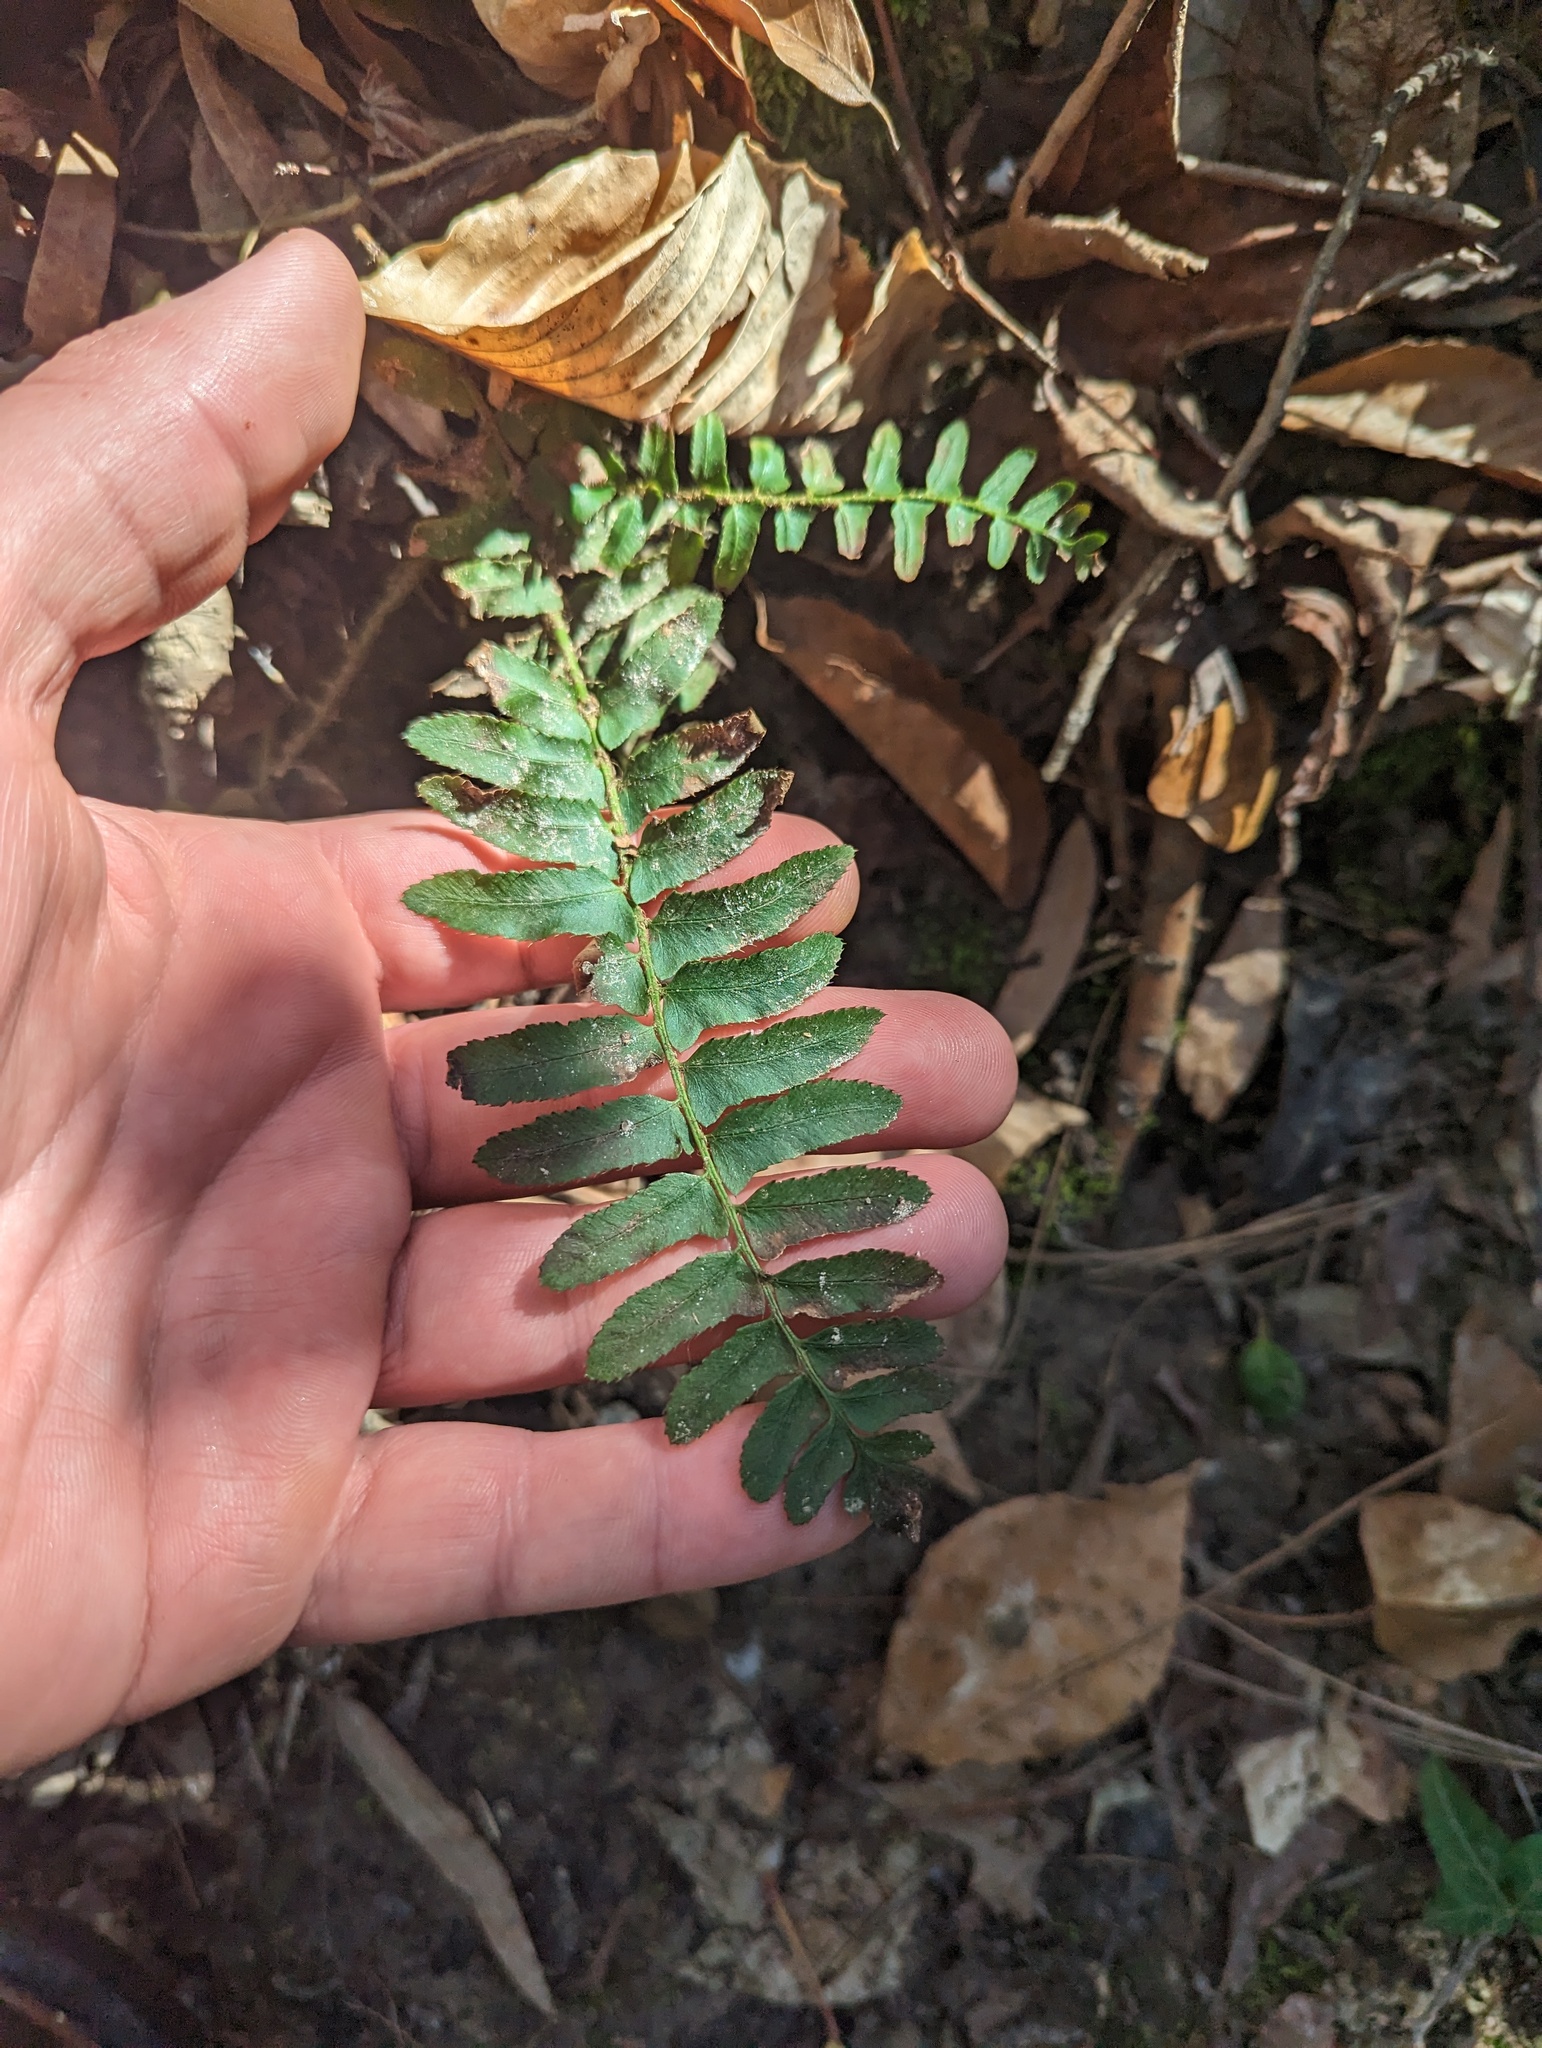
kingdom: Plantae
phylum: Tracheophyta
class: Polypodiopsida
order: Polypodiales
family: Dryopteridaceae
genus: Polystichum
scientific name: Polystichum acrostichoides
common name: Christmas fern
